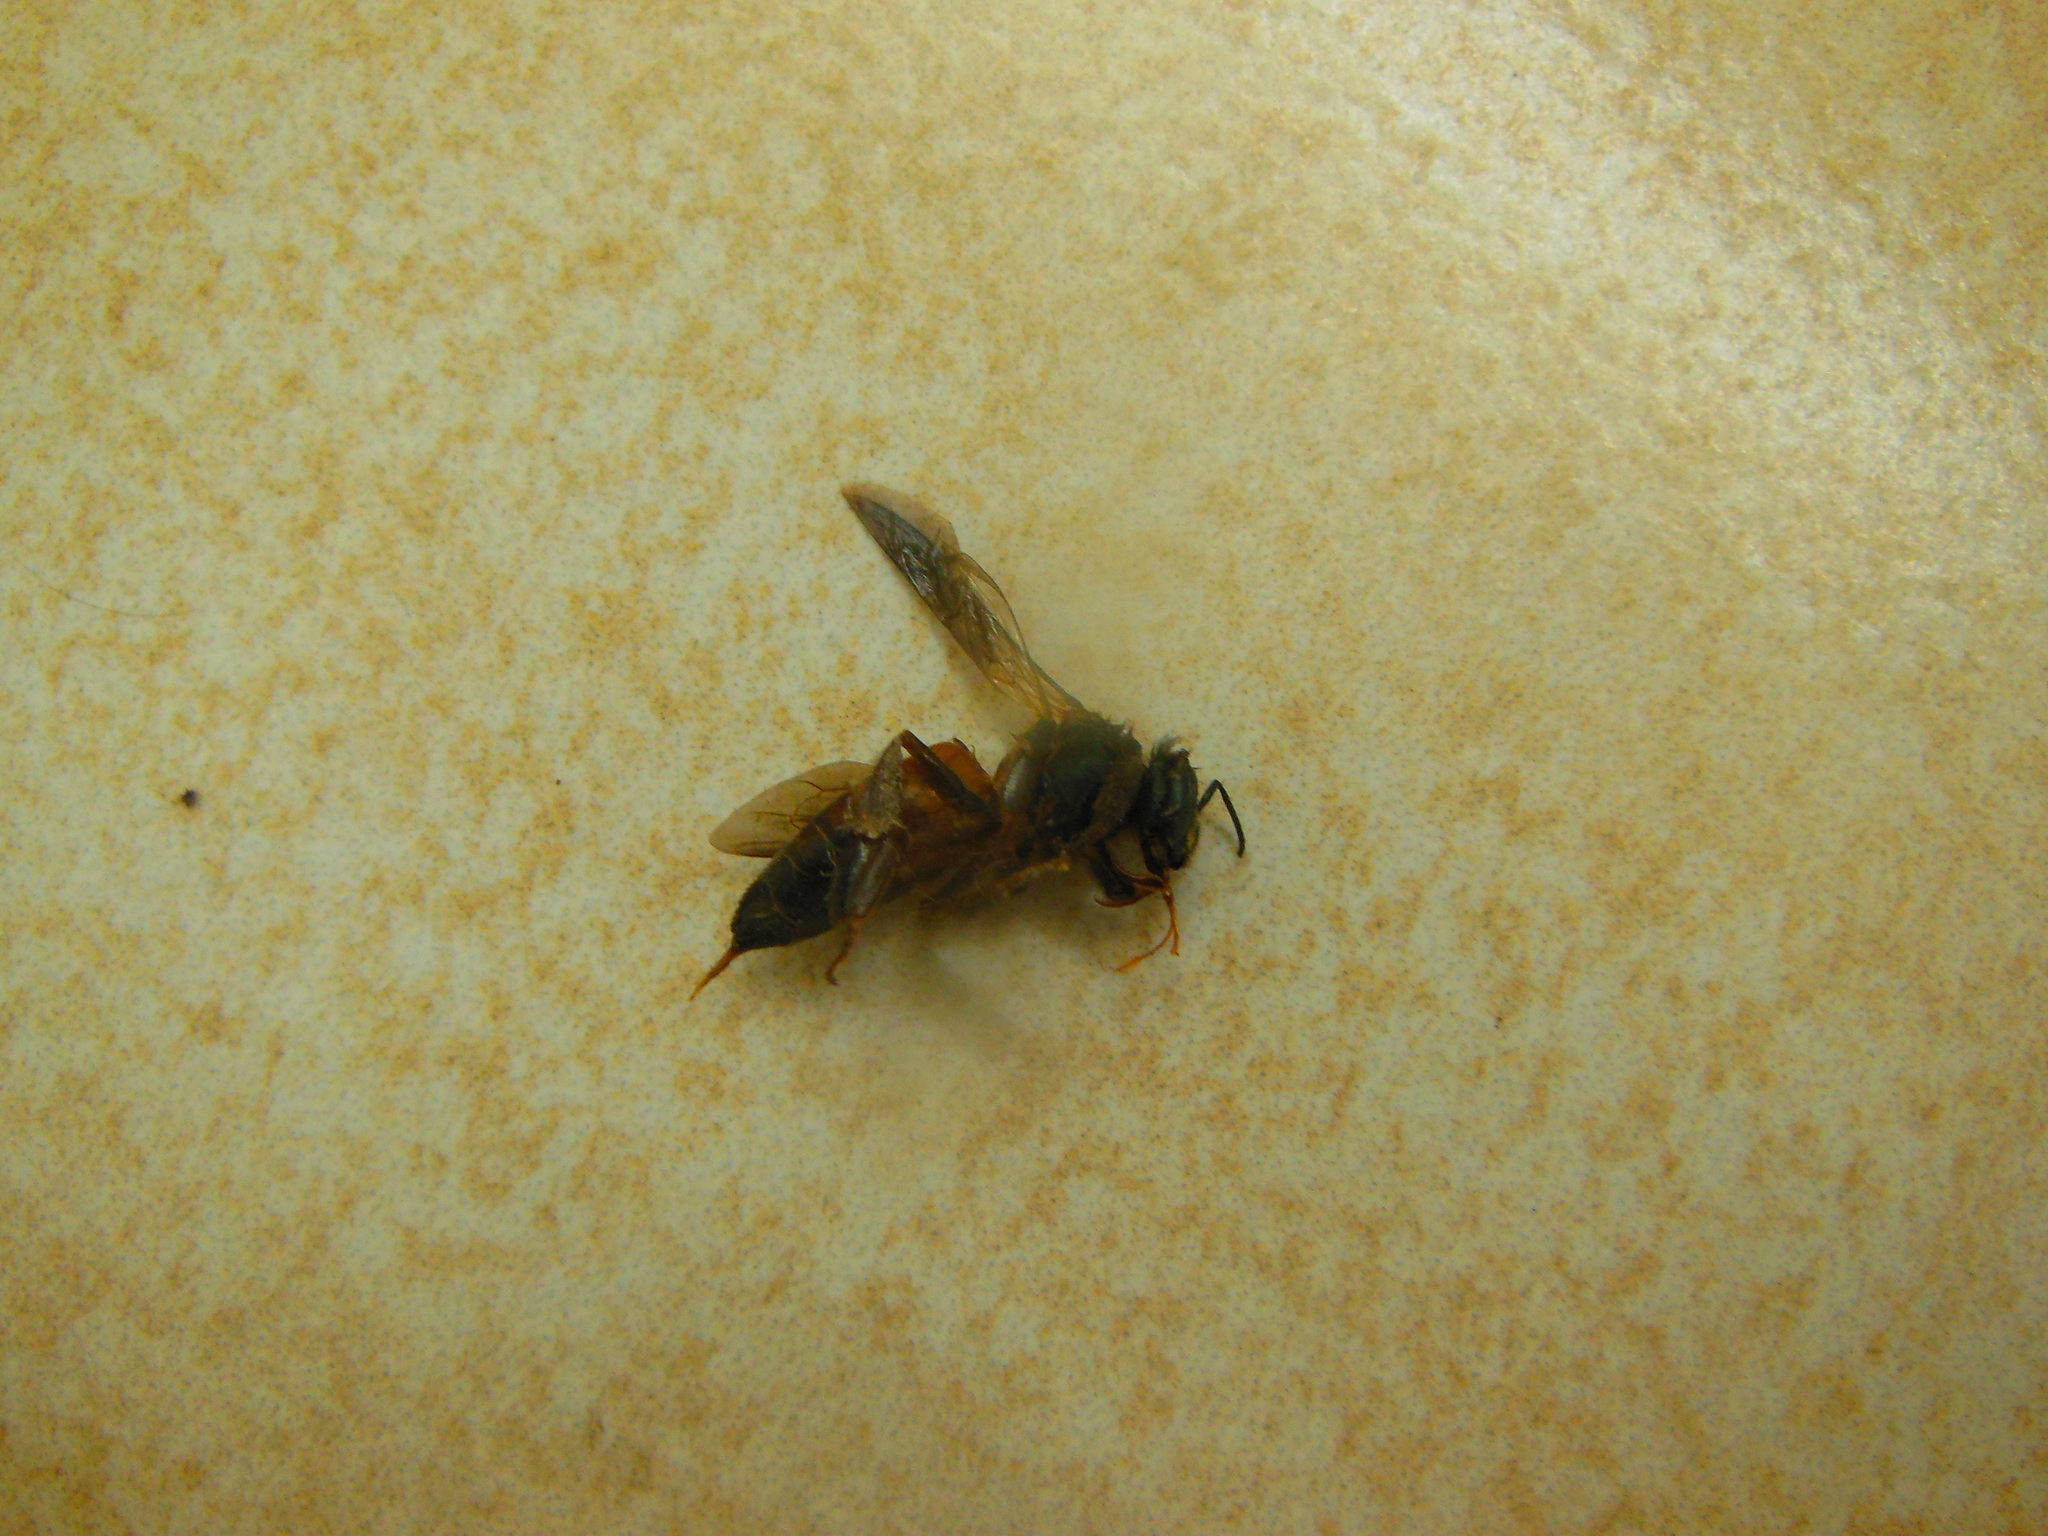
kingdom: Animalia
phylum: Arthropoda
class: Insecta
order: Hymenoptera
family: Apidae
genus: Apis
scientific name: Apis dorsata
